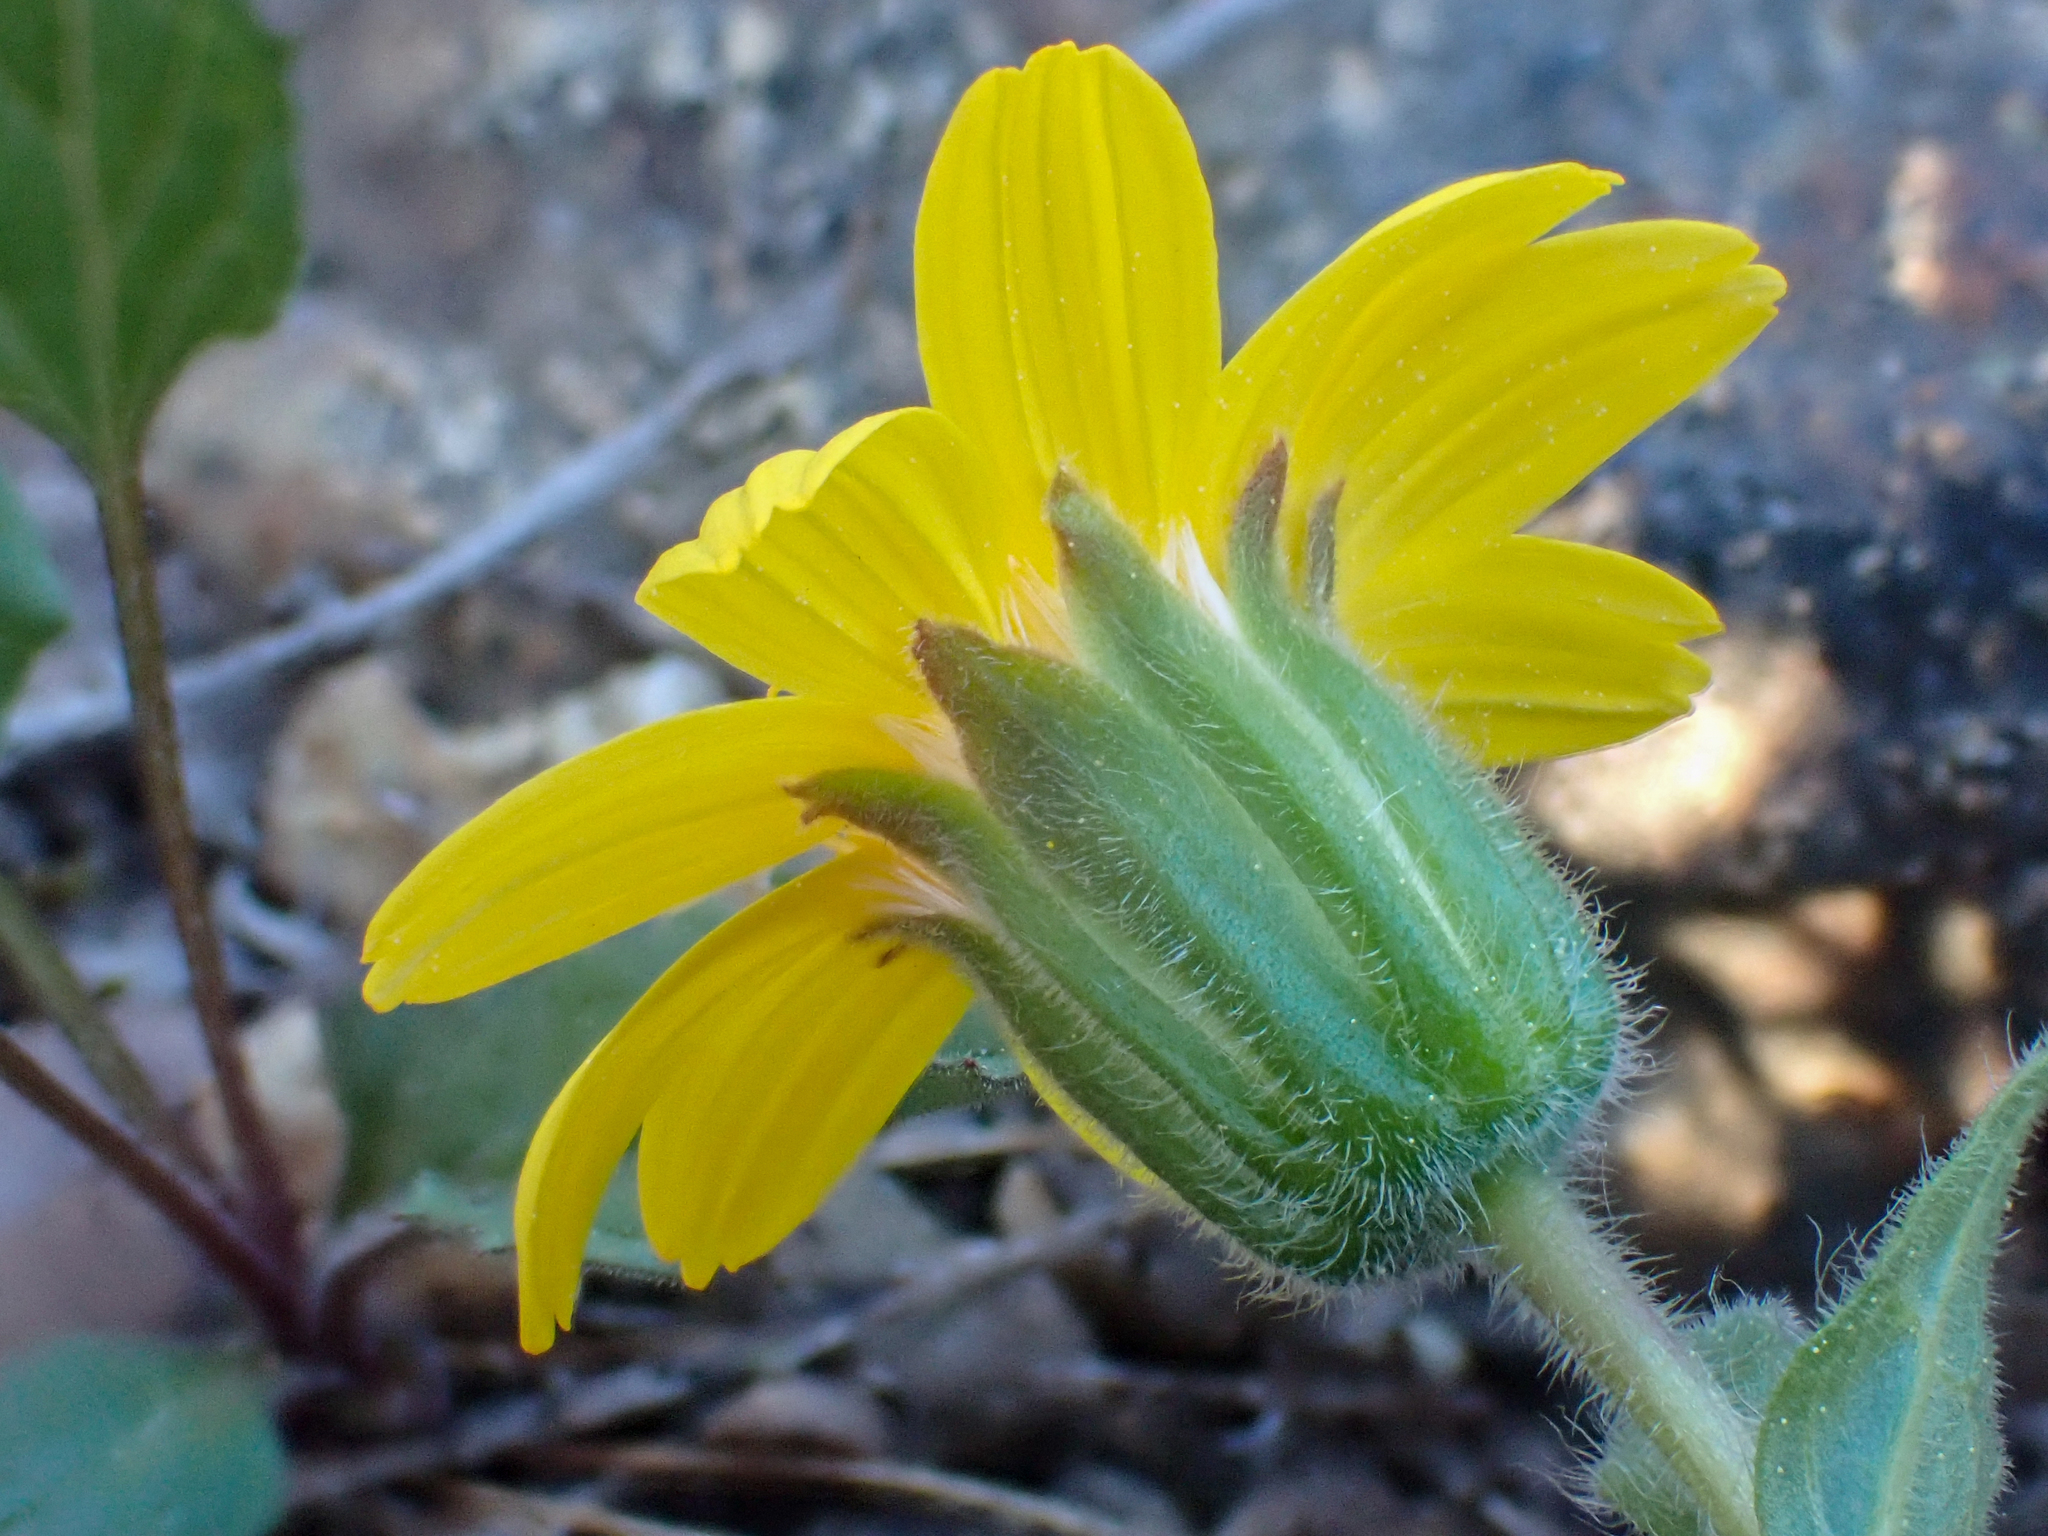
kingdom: Plantae
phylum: Tracheophyta
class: Magnoliopsida
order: Asterales
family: Asteraceae
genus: Arnica
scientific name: Arnica cernua
